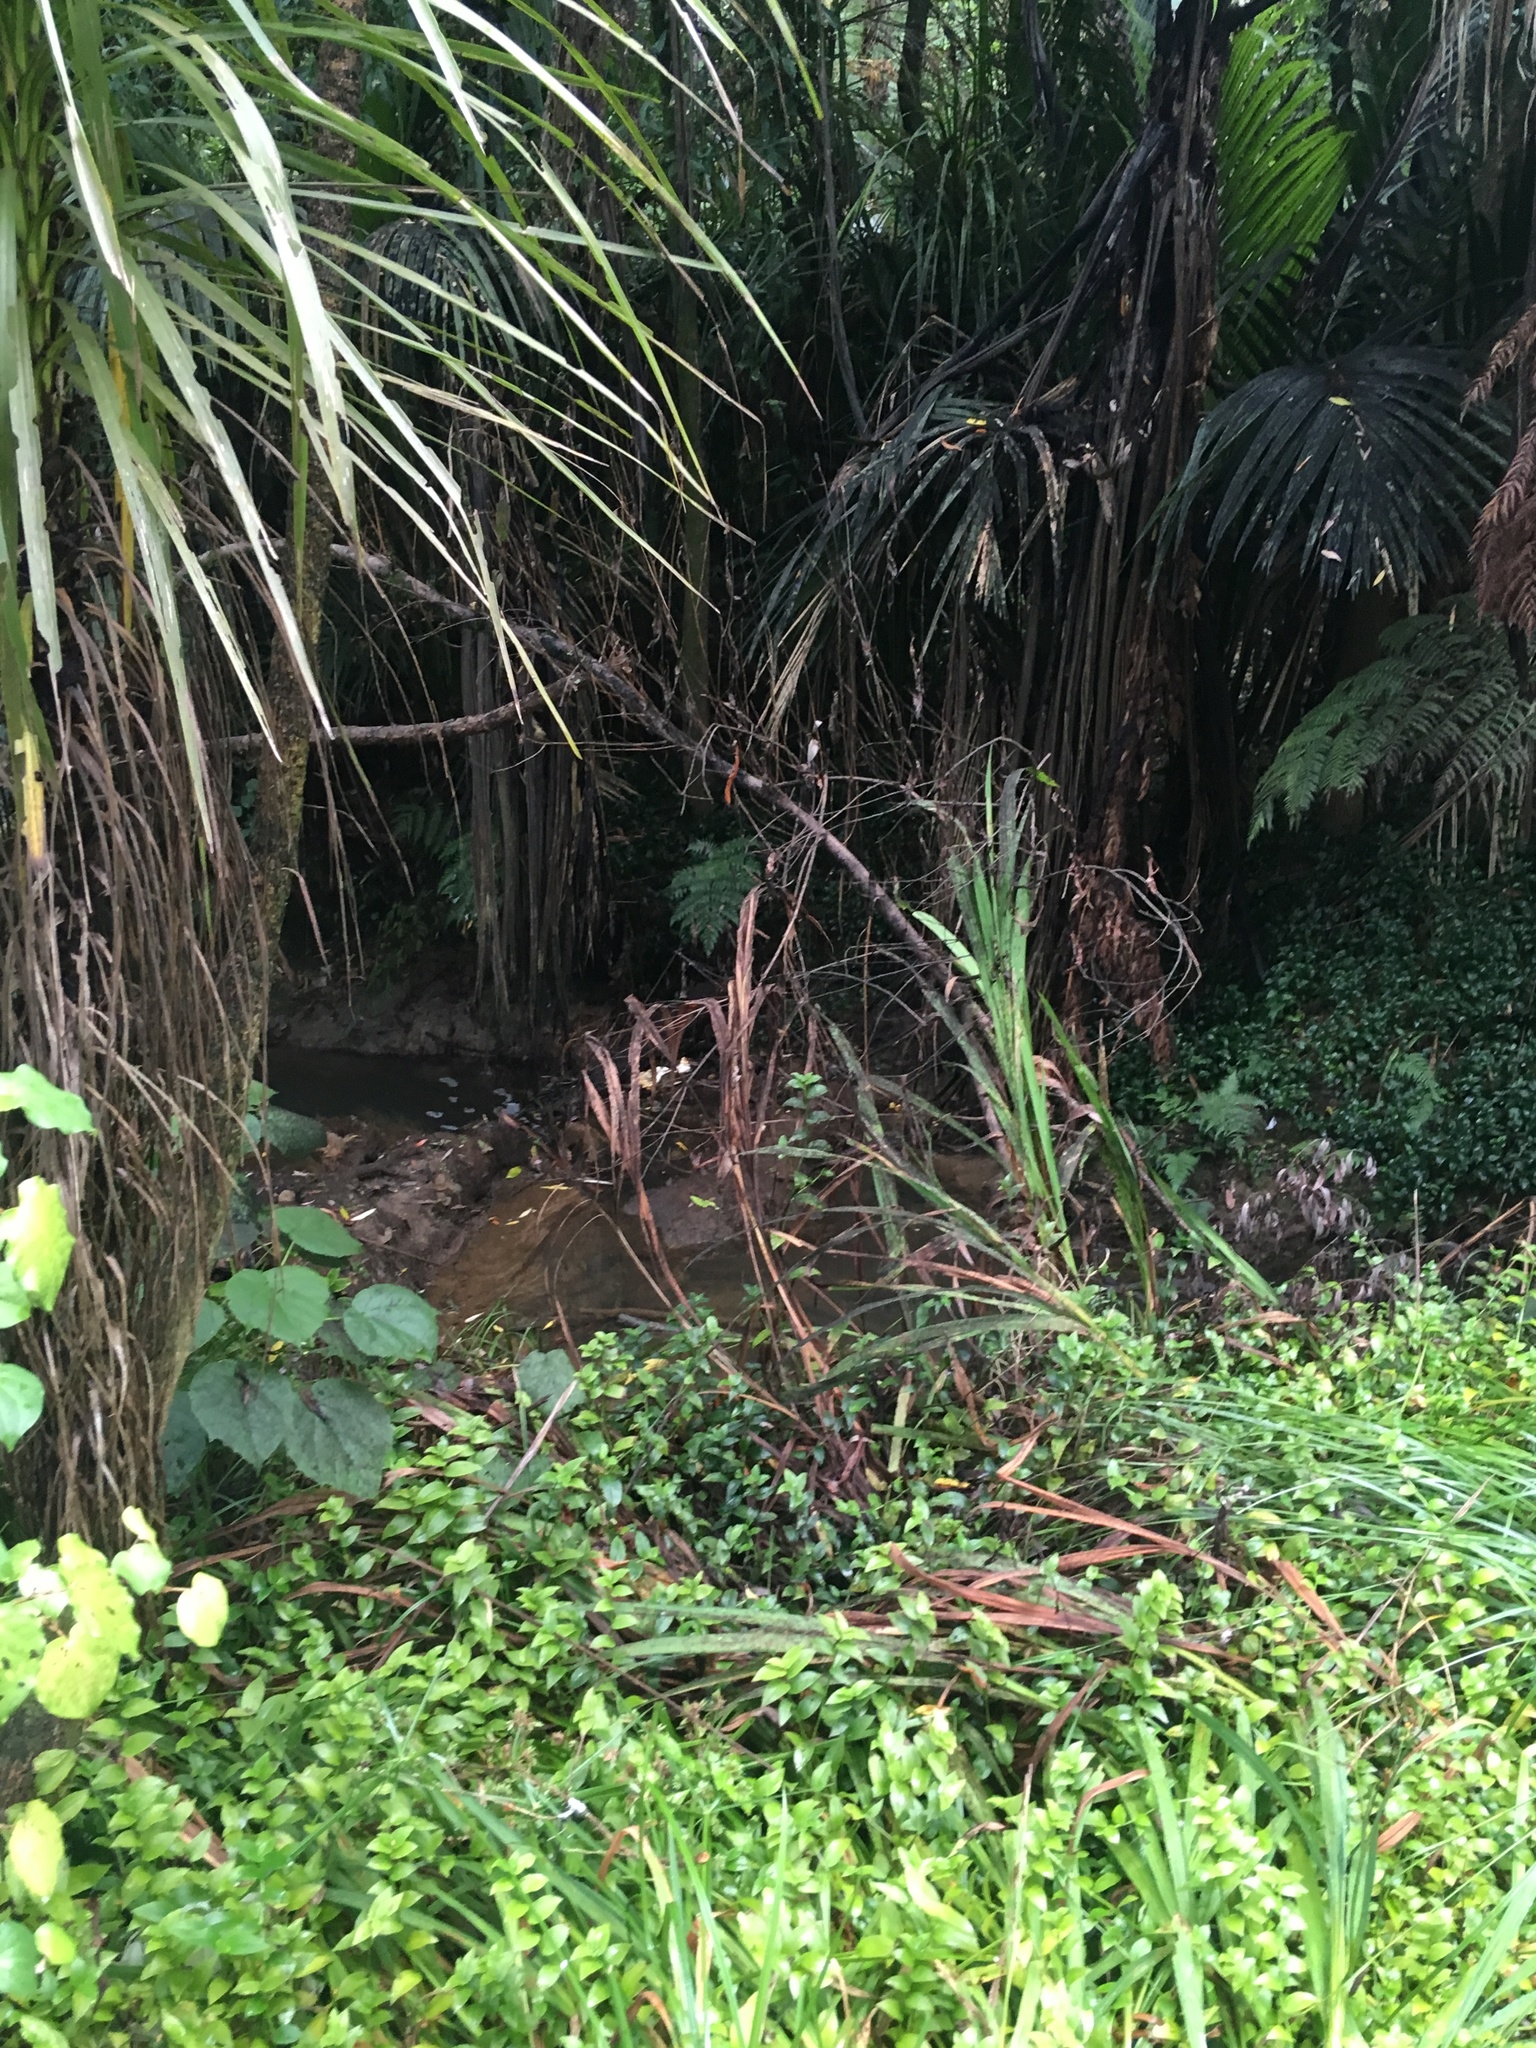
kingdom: Plantae
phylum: Tracheophyta
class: Liliopsida
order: Asparagales
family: Iridaceae
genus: Crocosmia
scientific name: Crocosmia crocosmiiflora
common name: Montbretia
